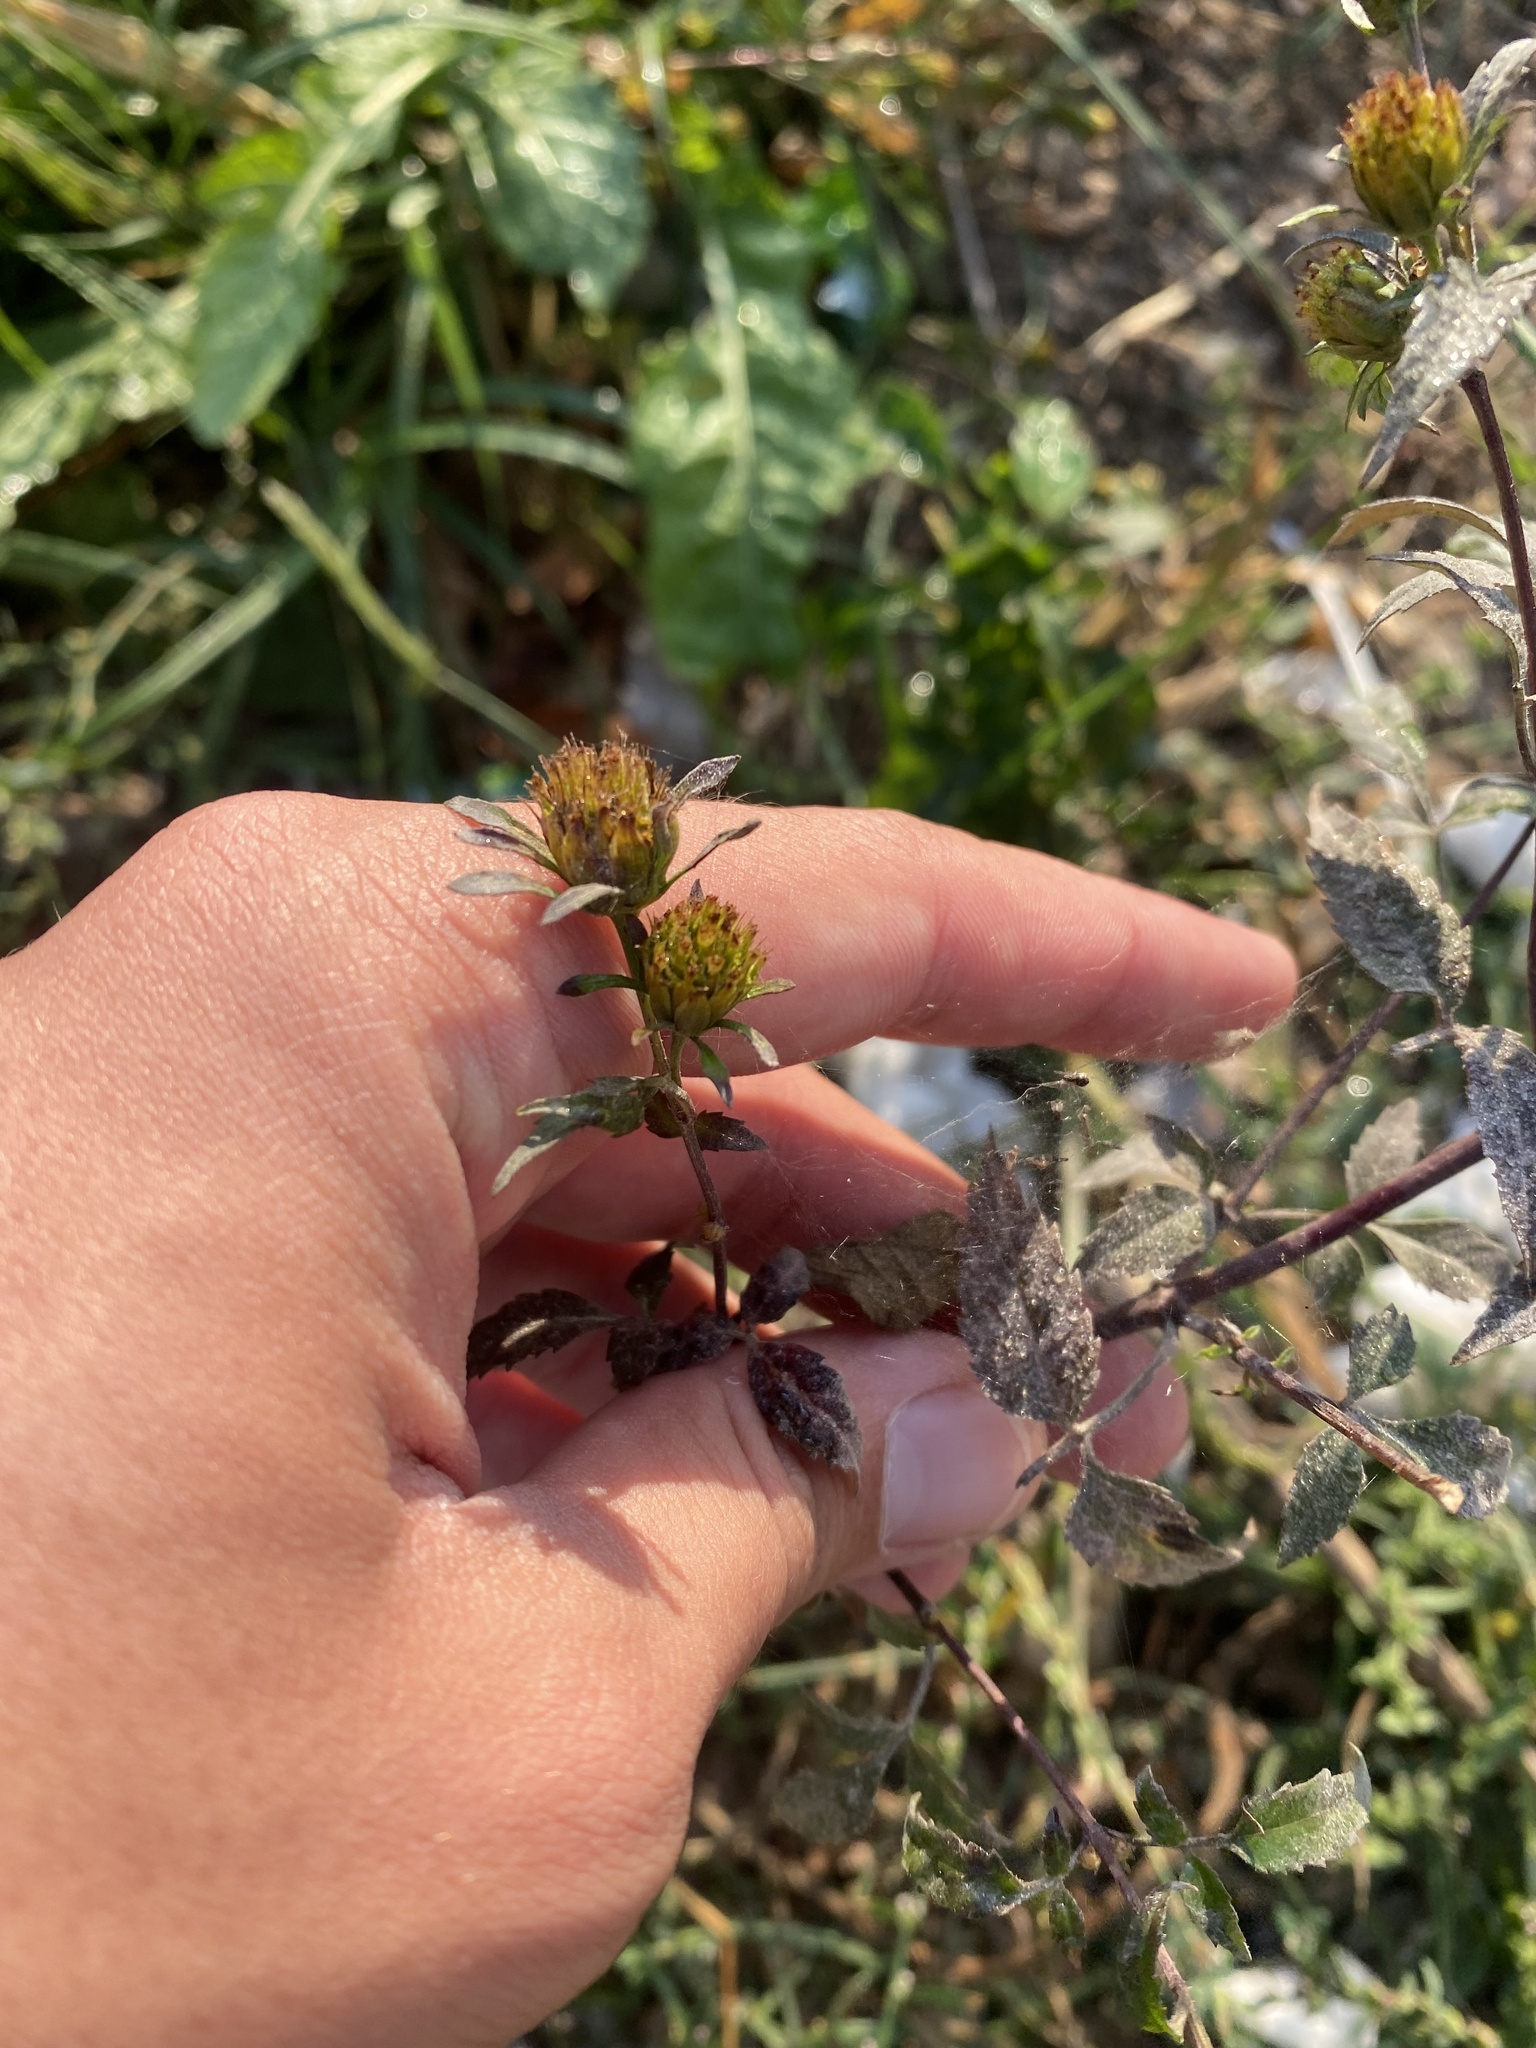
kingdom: Plantae
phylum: Tracheophyta
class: Magnoliopsida
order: Asterales
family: Asteraceae
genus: Bidens
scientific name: Bidens frondosa
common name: Beggarticks
